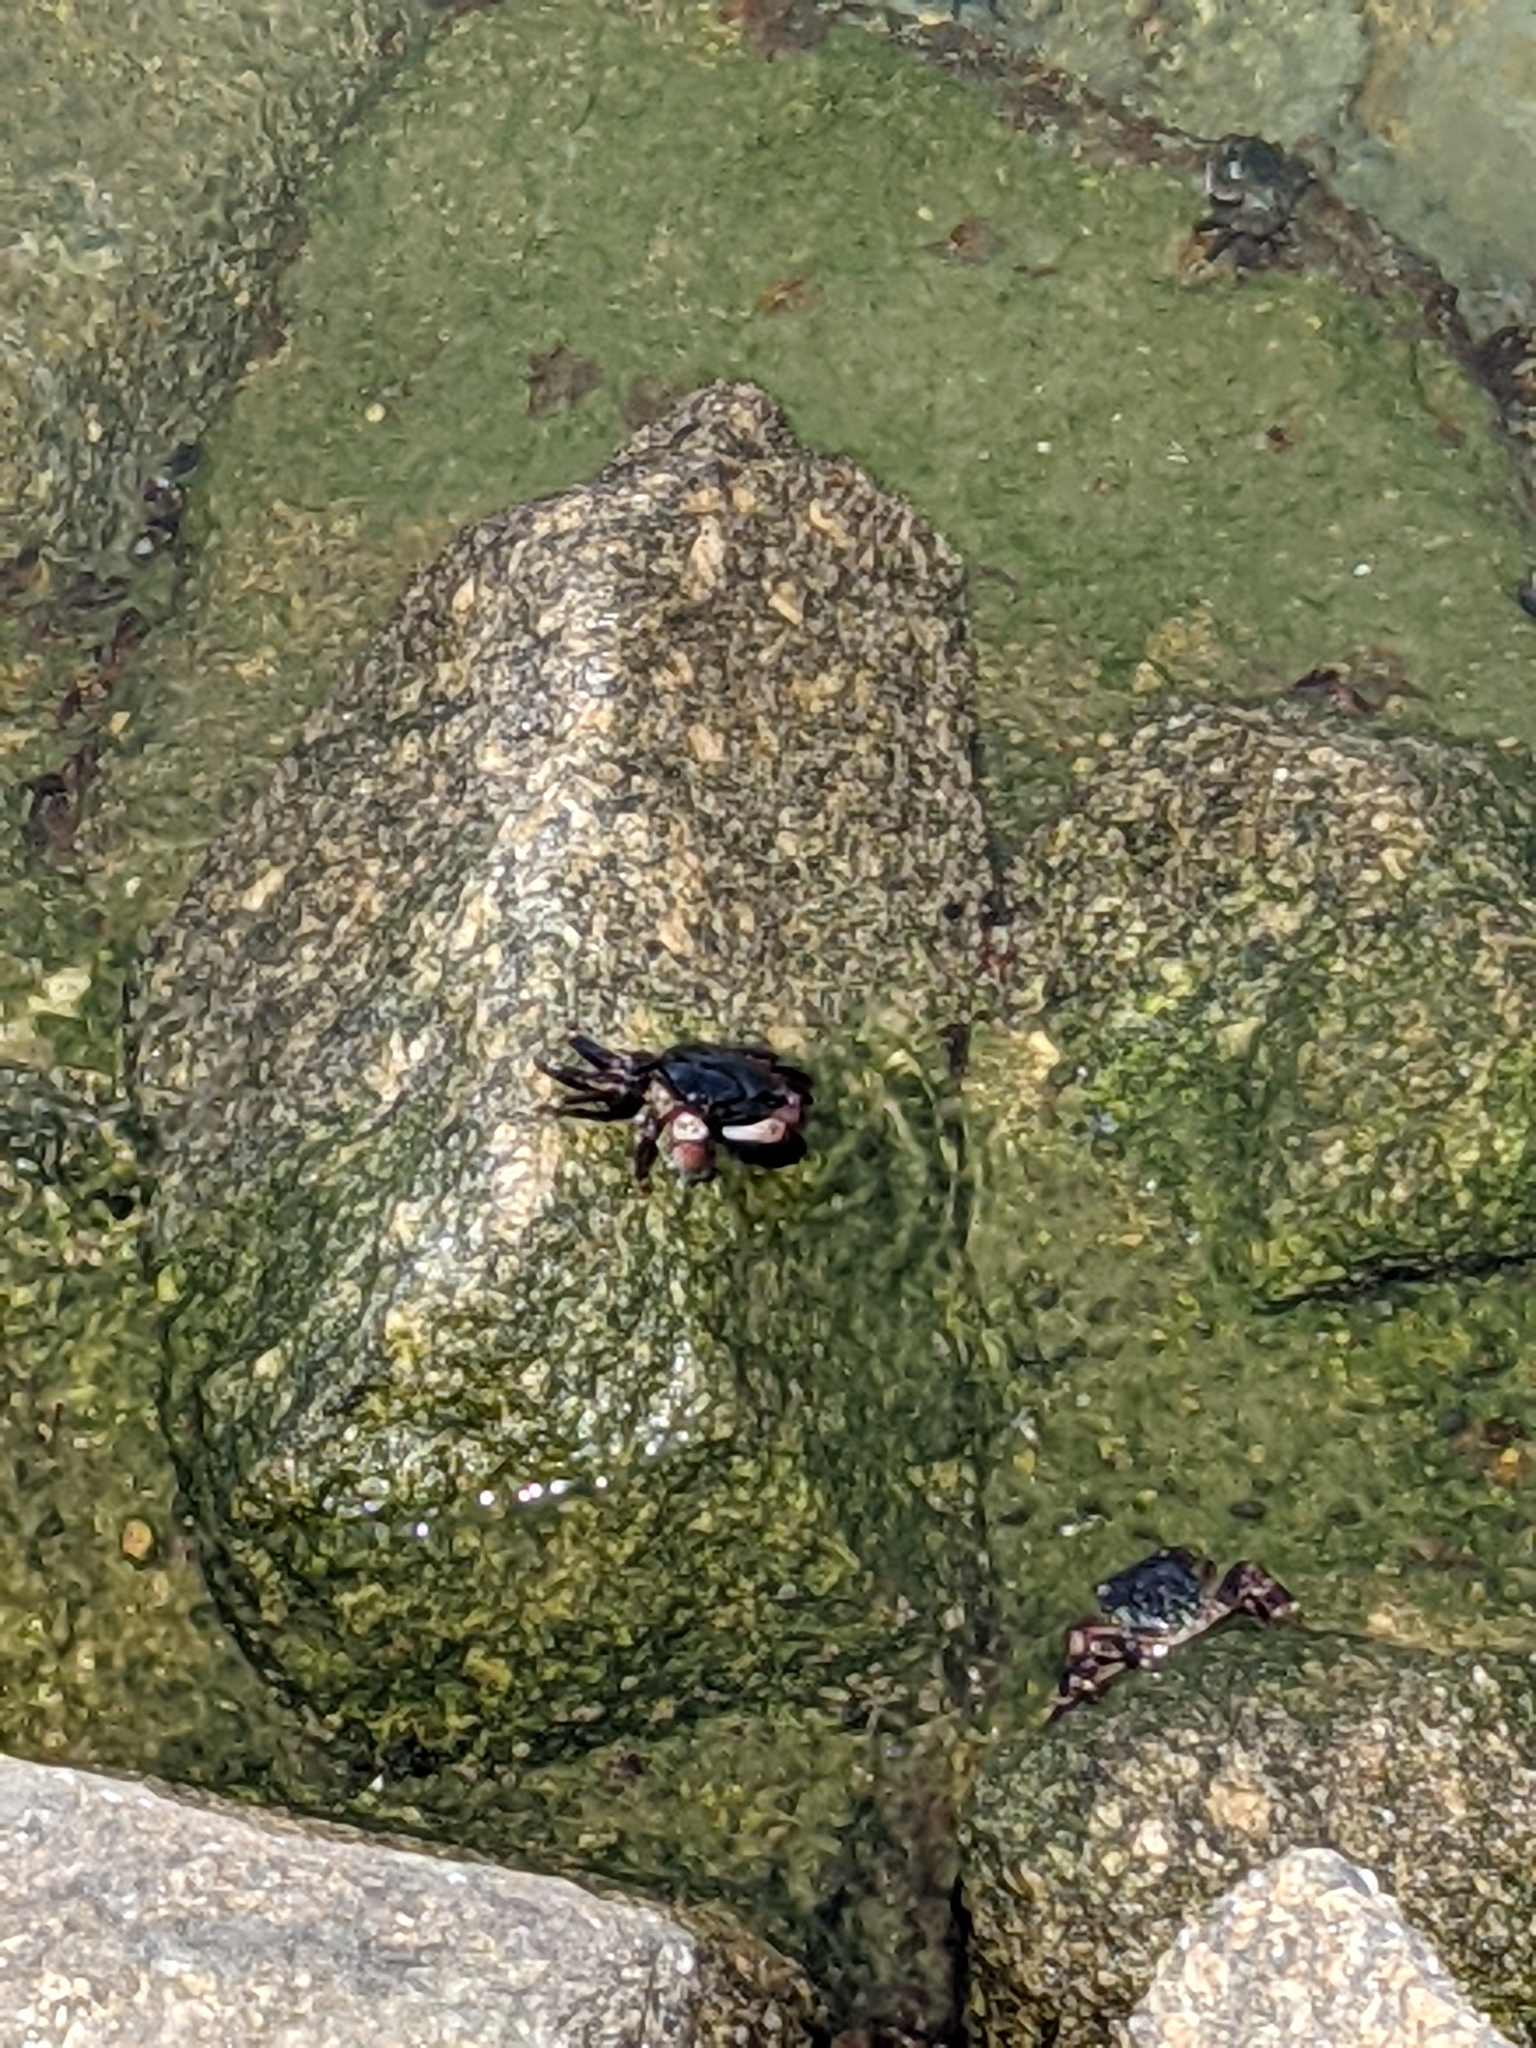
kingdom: Animalia
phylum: Arthropoda
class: Malacostraca
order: Decapoda
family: Grapsidae
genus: Pachygrapsus
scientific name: Pachygrapsus crassipes
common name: Striped shore crab
